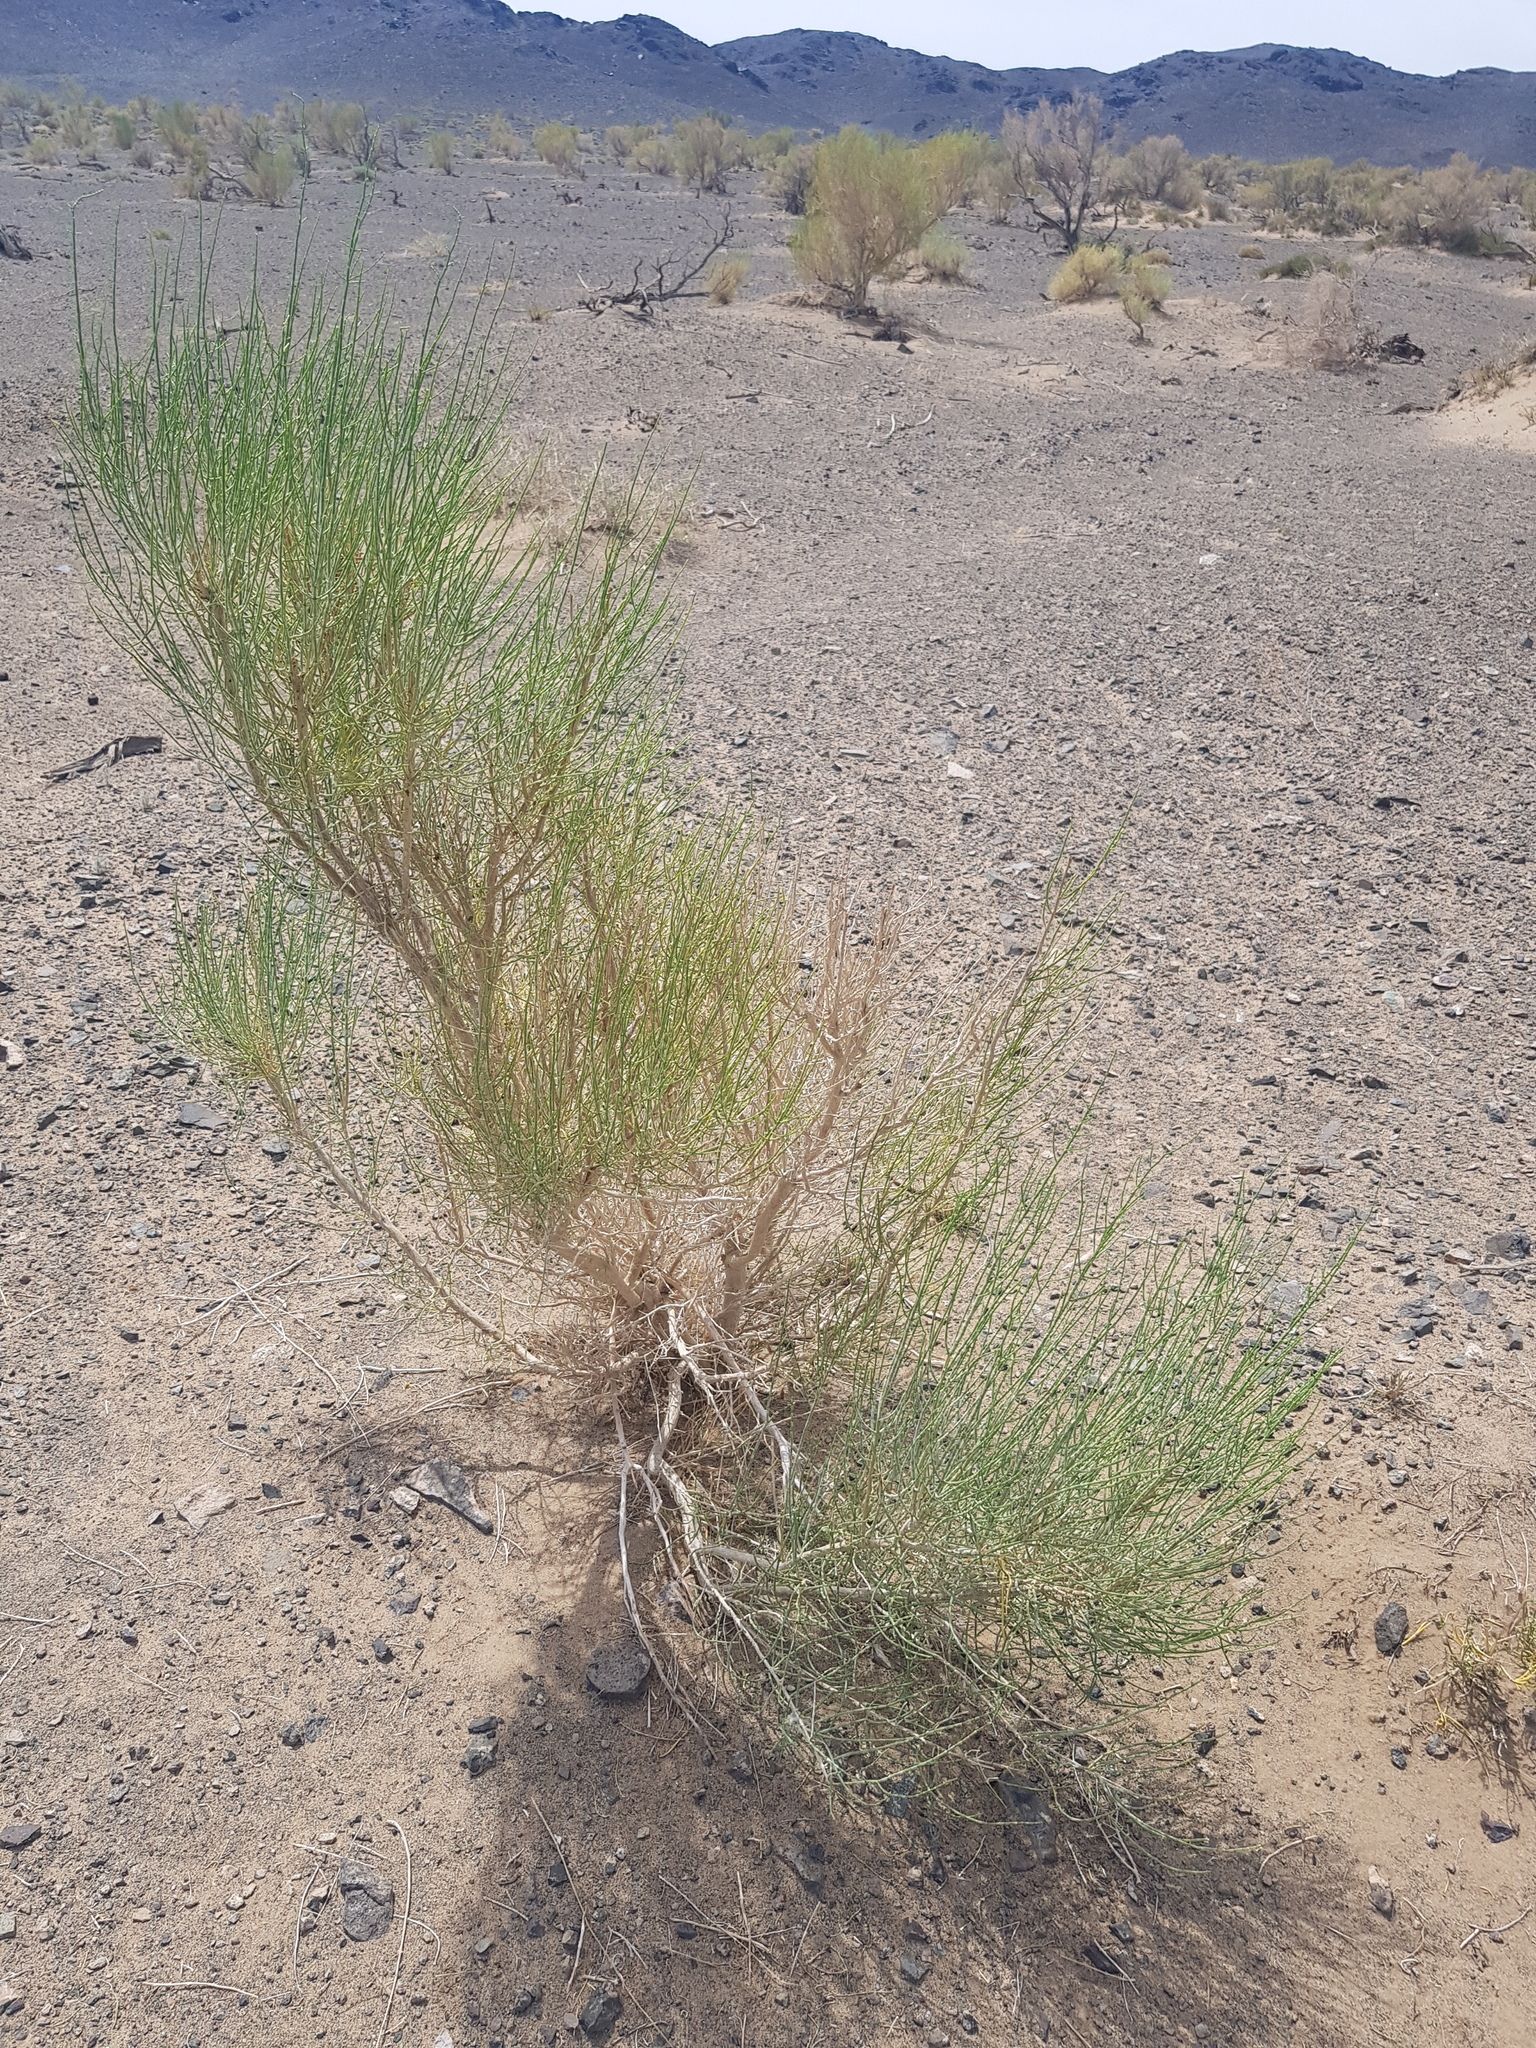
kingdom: Plantae
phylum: Tracheophyta
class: Magnoliopsida
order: Caryophyllales
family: Amaranthaceae
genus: Haloxylon
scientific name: Haloxylon ammodendron
